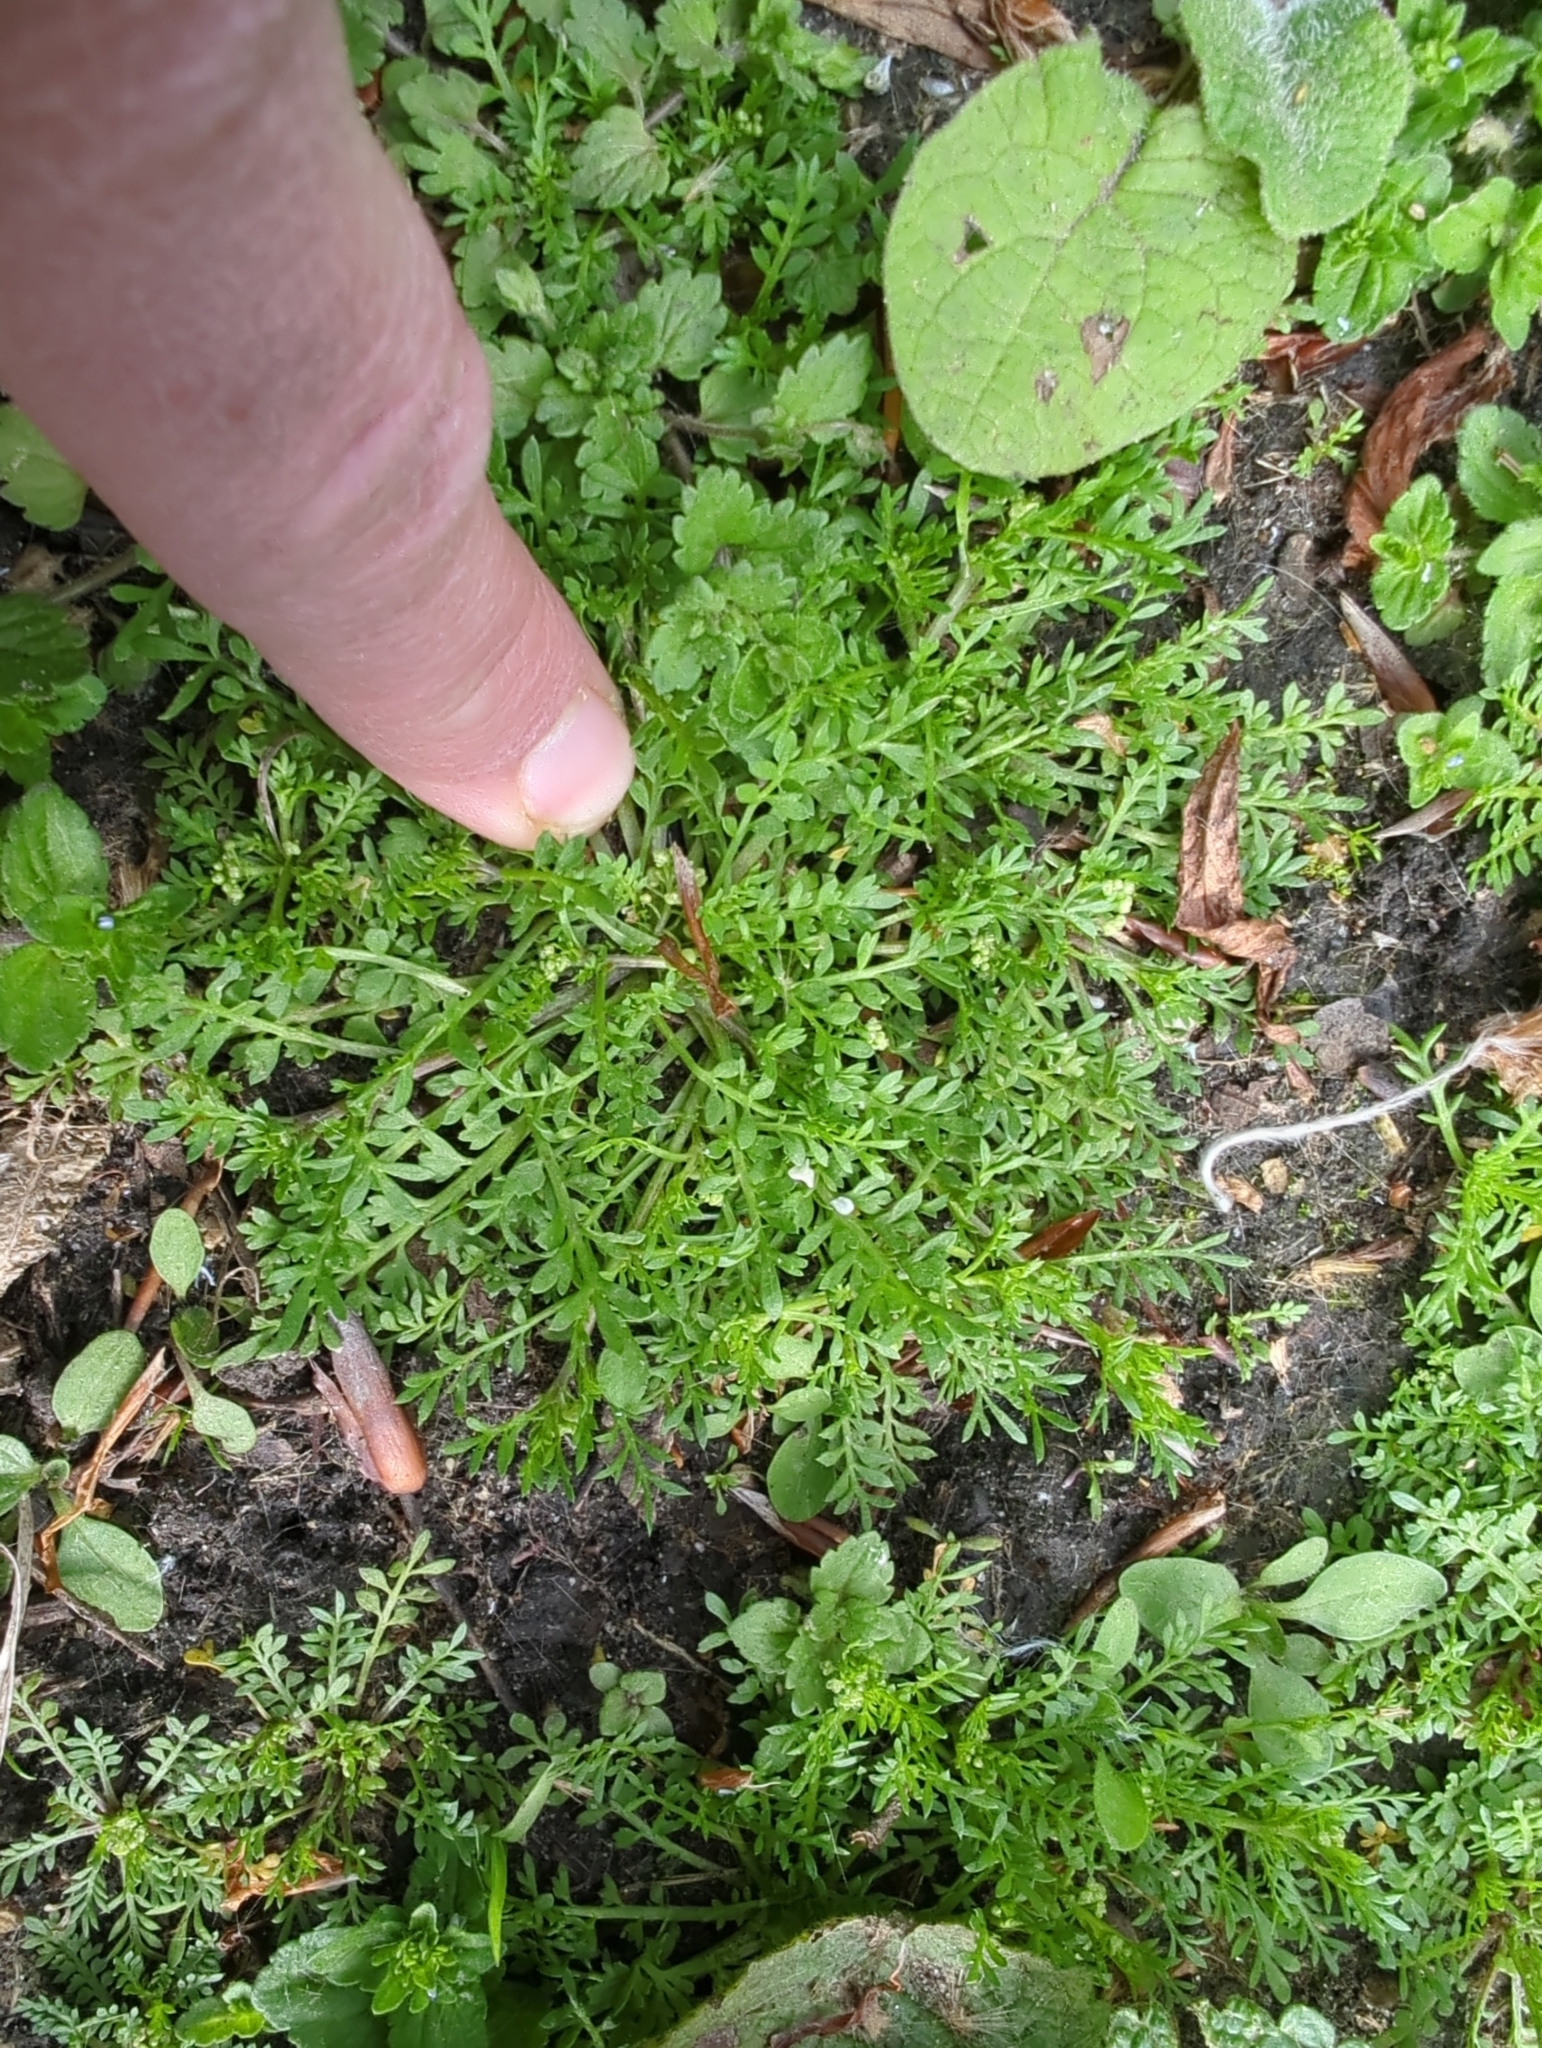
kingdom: Plantae
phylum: Tracheophyta
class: Magnoliopsida
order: Brassicales
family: Brassicaceae
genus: Lepidium
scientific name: Lepidium didymum
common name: Lesser swinecress
